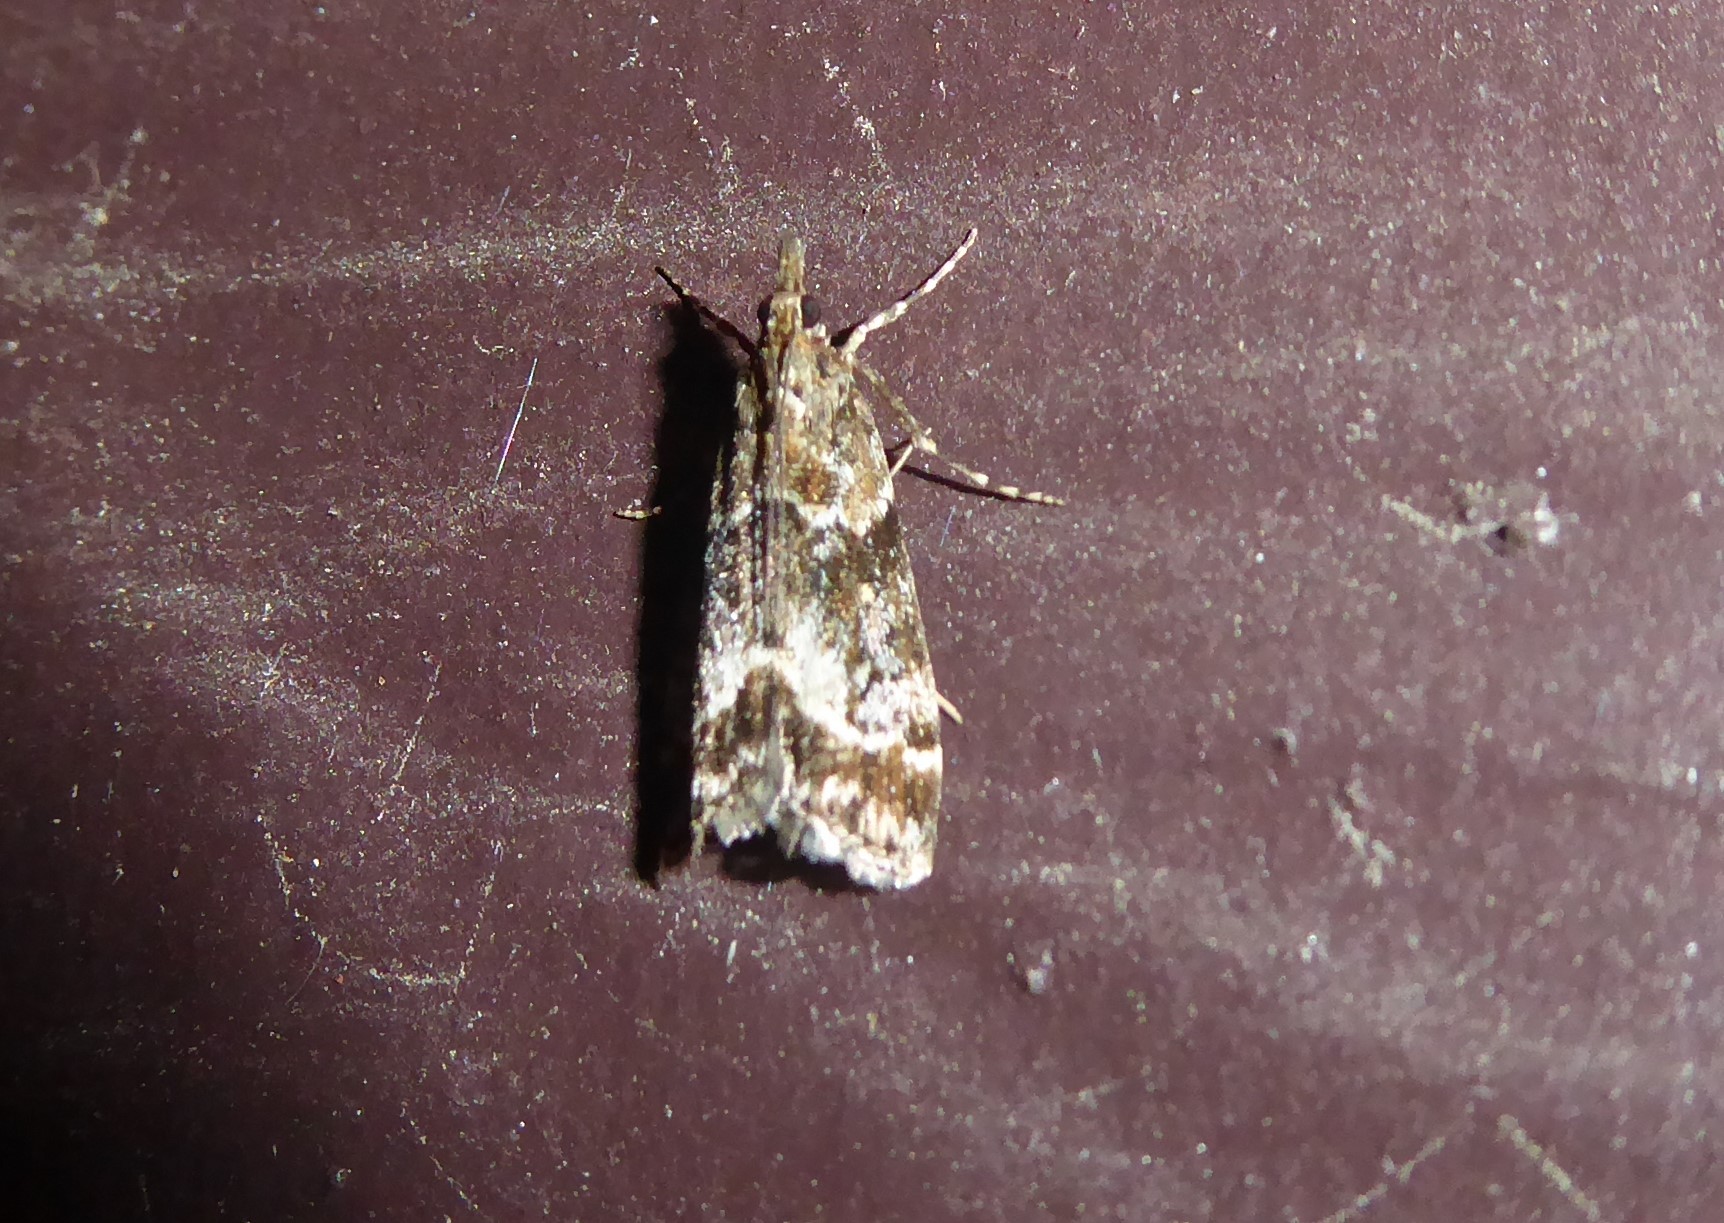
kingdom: Animalia
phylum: Arthropoda
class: Insecta
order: Lepidoptera
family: Crambidae
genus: Eudonia
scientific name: Eudonia legnota
